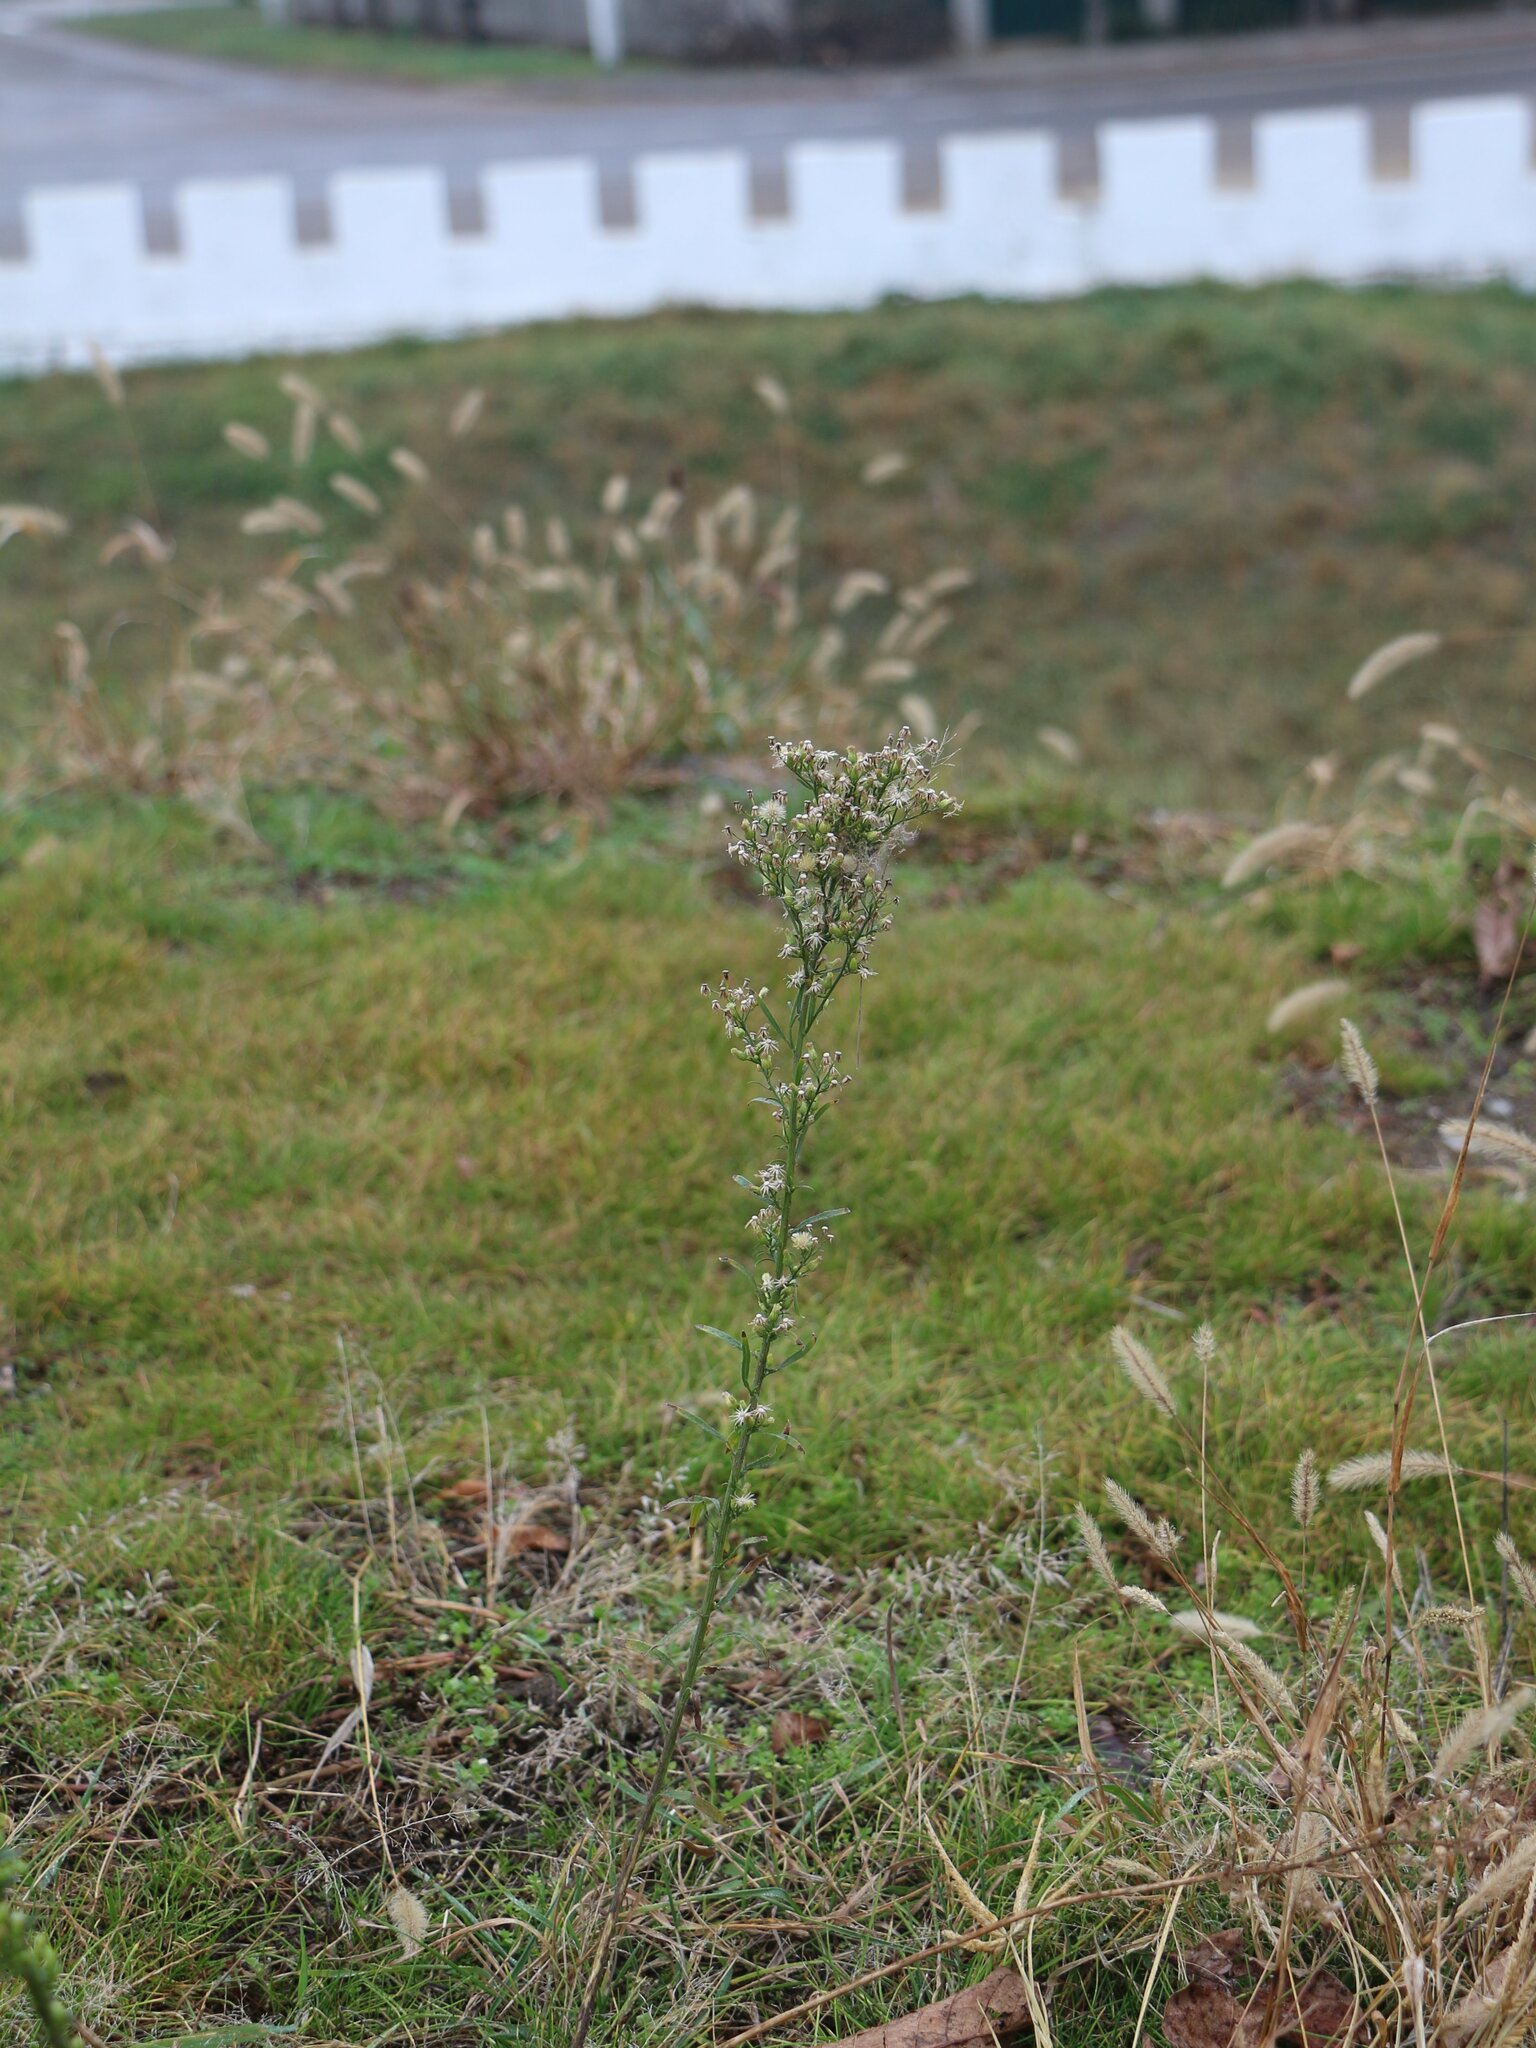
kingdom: Plantae
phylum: Tracheophyta
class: Magnoliopsida
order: Asterales
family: Asteraceae
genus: Erigeron
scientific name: Erigeron canadensis
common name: Canadian fleabane
